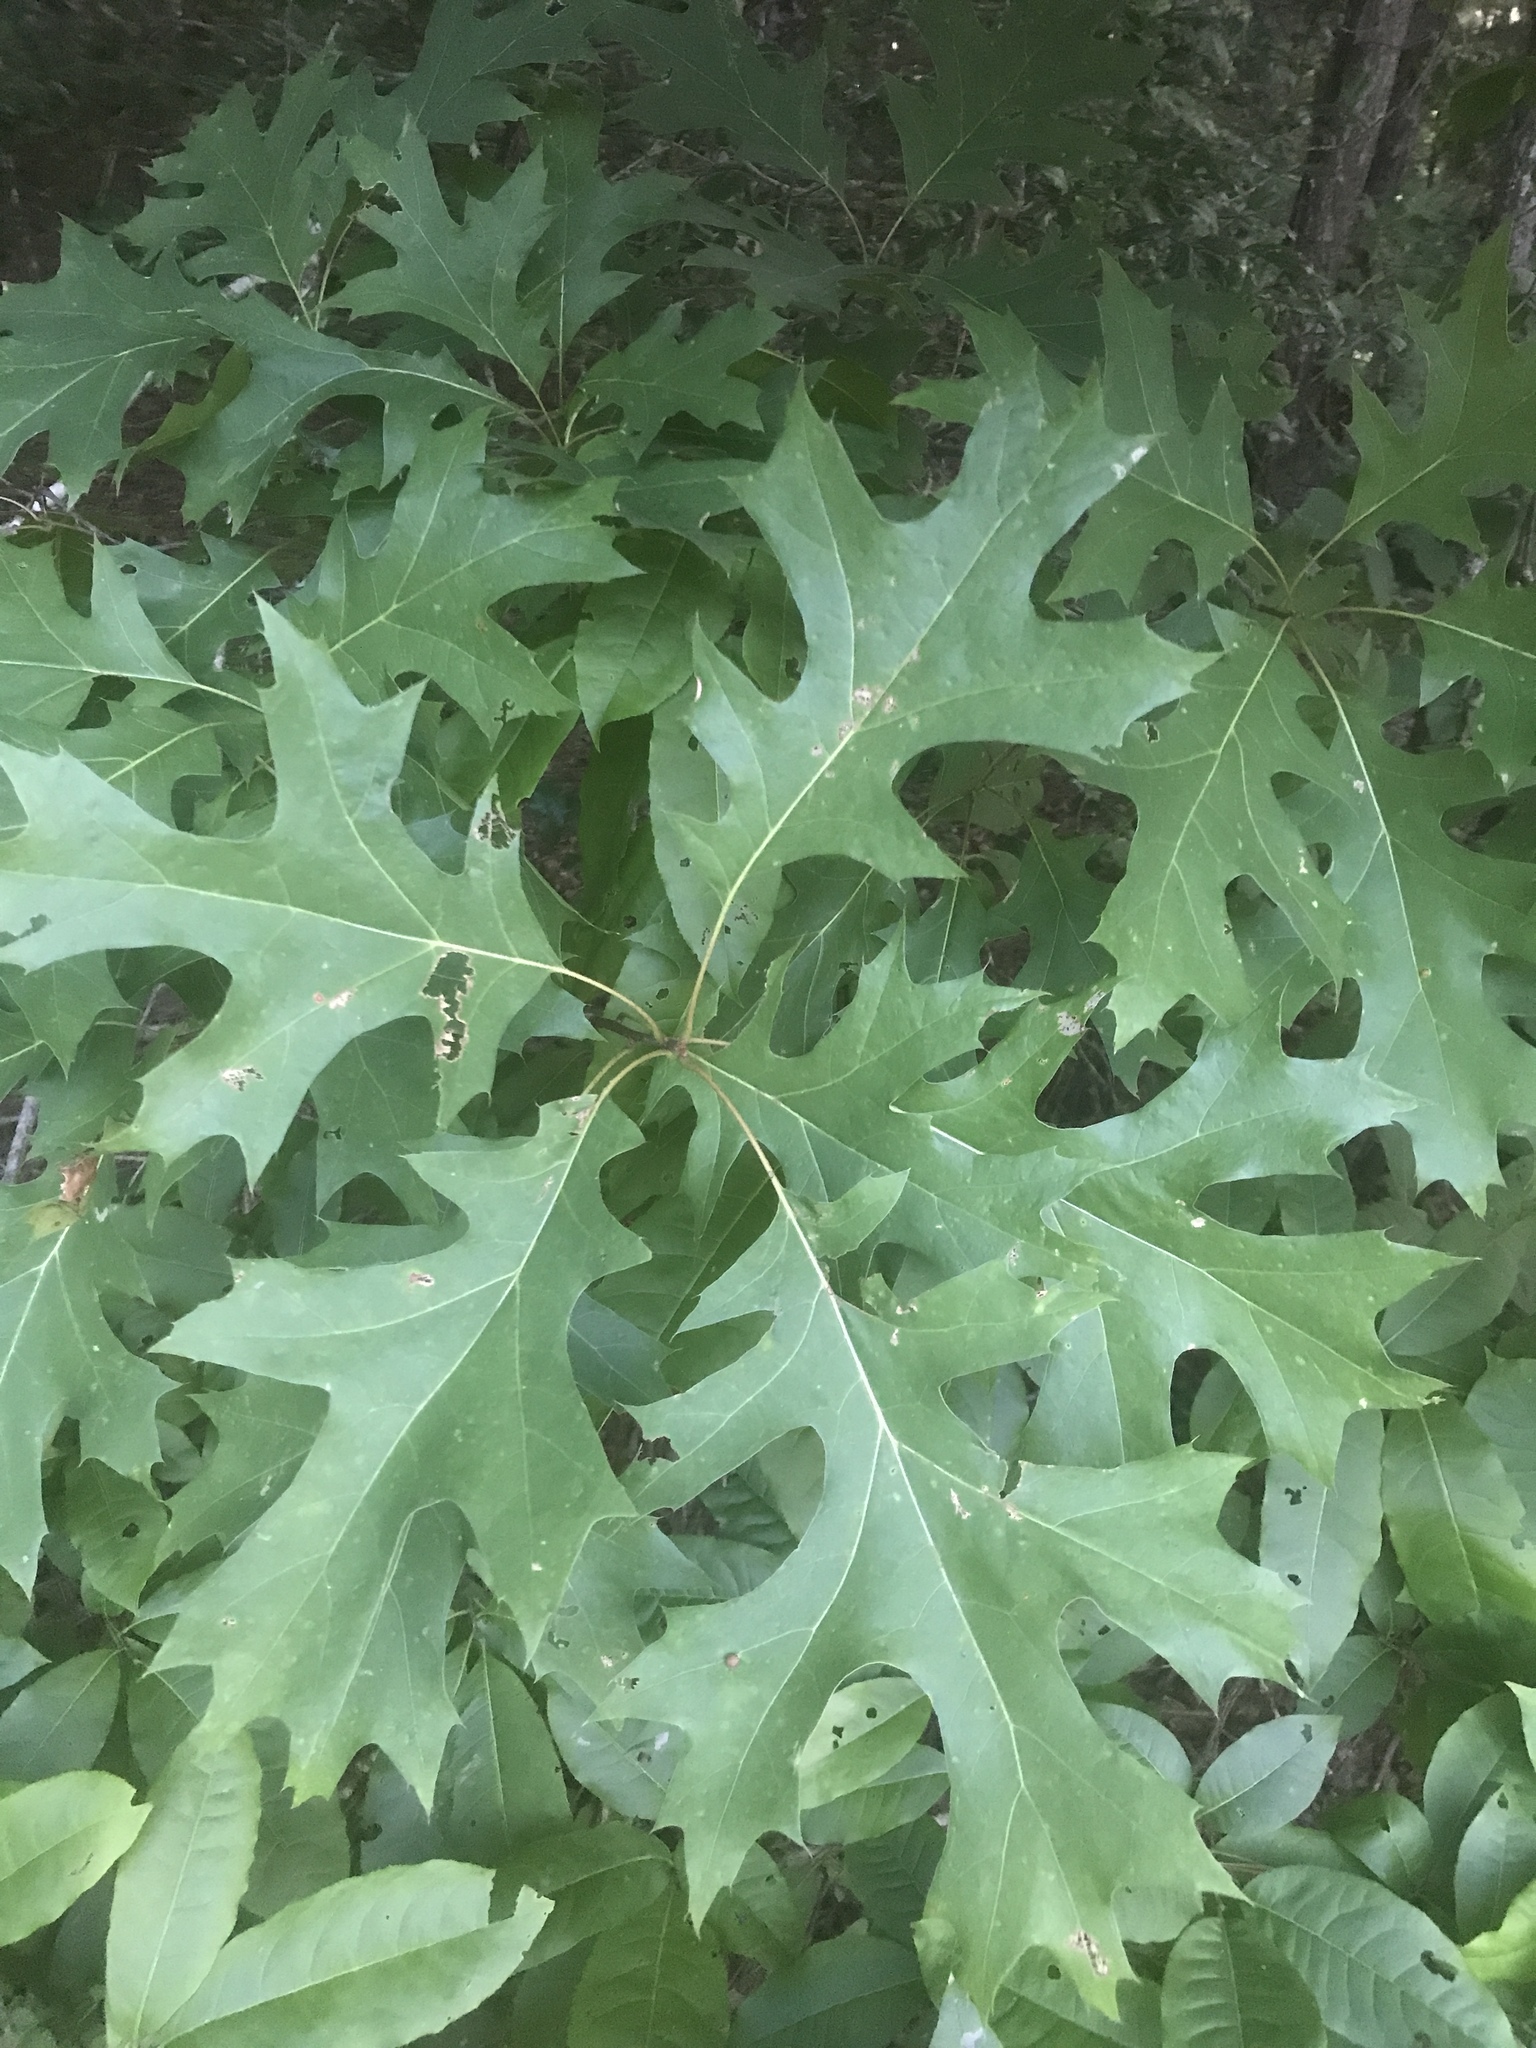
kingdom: Plantae
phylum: Tracheophyta
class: Magnoliopsida
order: Fagales
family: Fagaceae
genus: Quercus
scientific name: Quercus coccinea
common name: Scarlet oak
